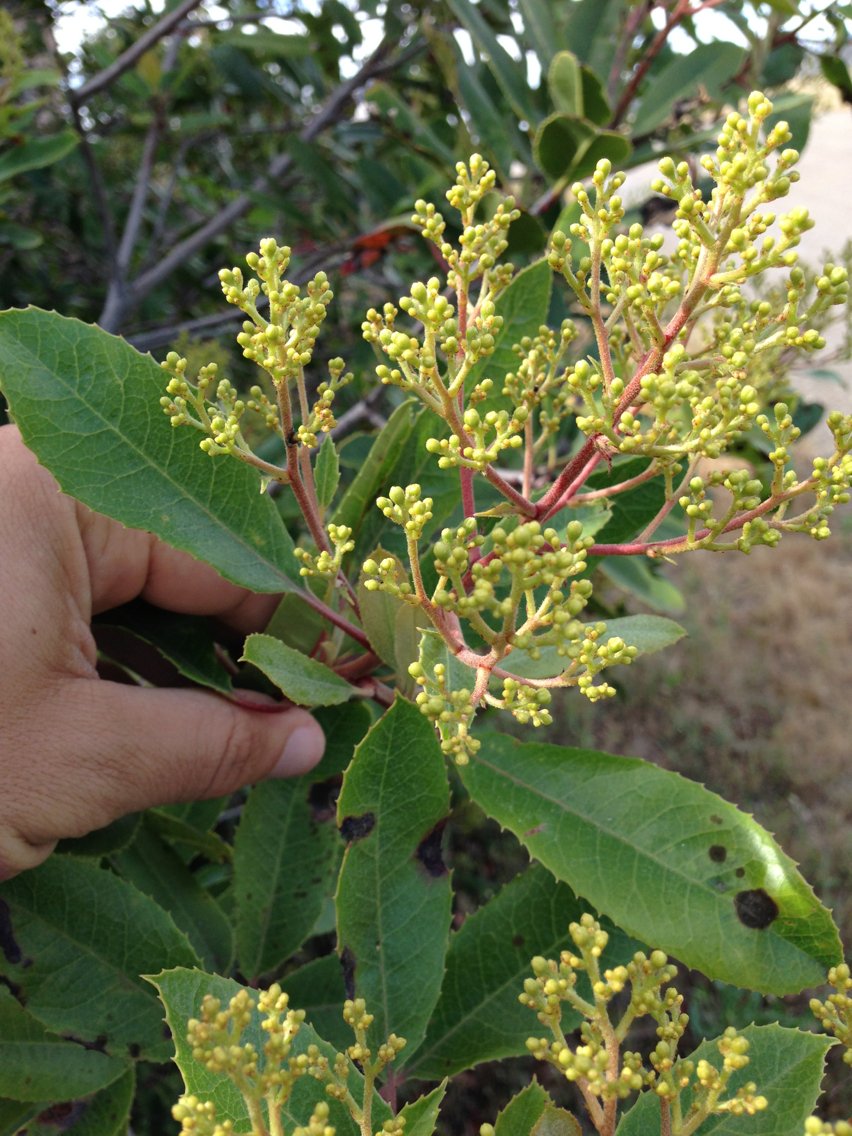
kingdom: Plantae
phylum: Tracheophyta
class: Magnoliopsida
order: Rosales
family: Rosaceae
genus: Heteromeles
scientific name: Heteromeles arbutifolia
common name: California-holly
